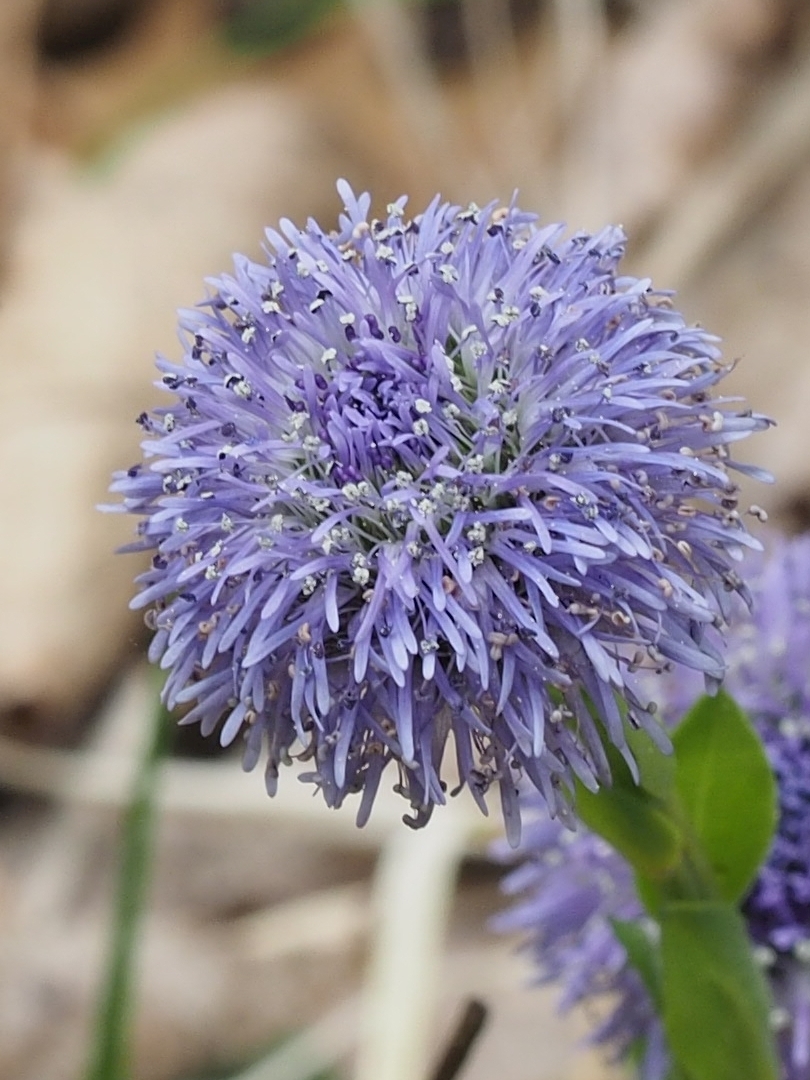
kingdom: Plantae
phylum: Tracheophyta
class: Magnoliopsida
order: Lamiales
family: Plantaginaceae
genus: Globularia
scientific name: Globularia bisnagarica
